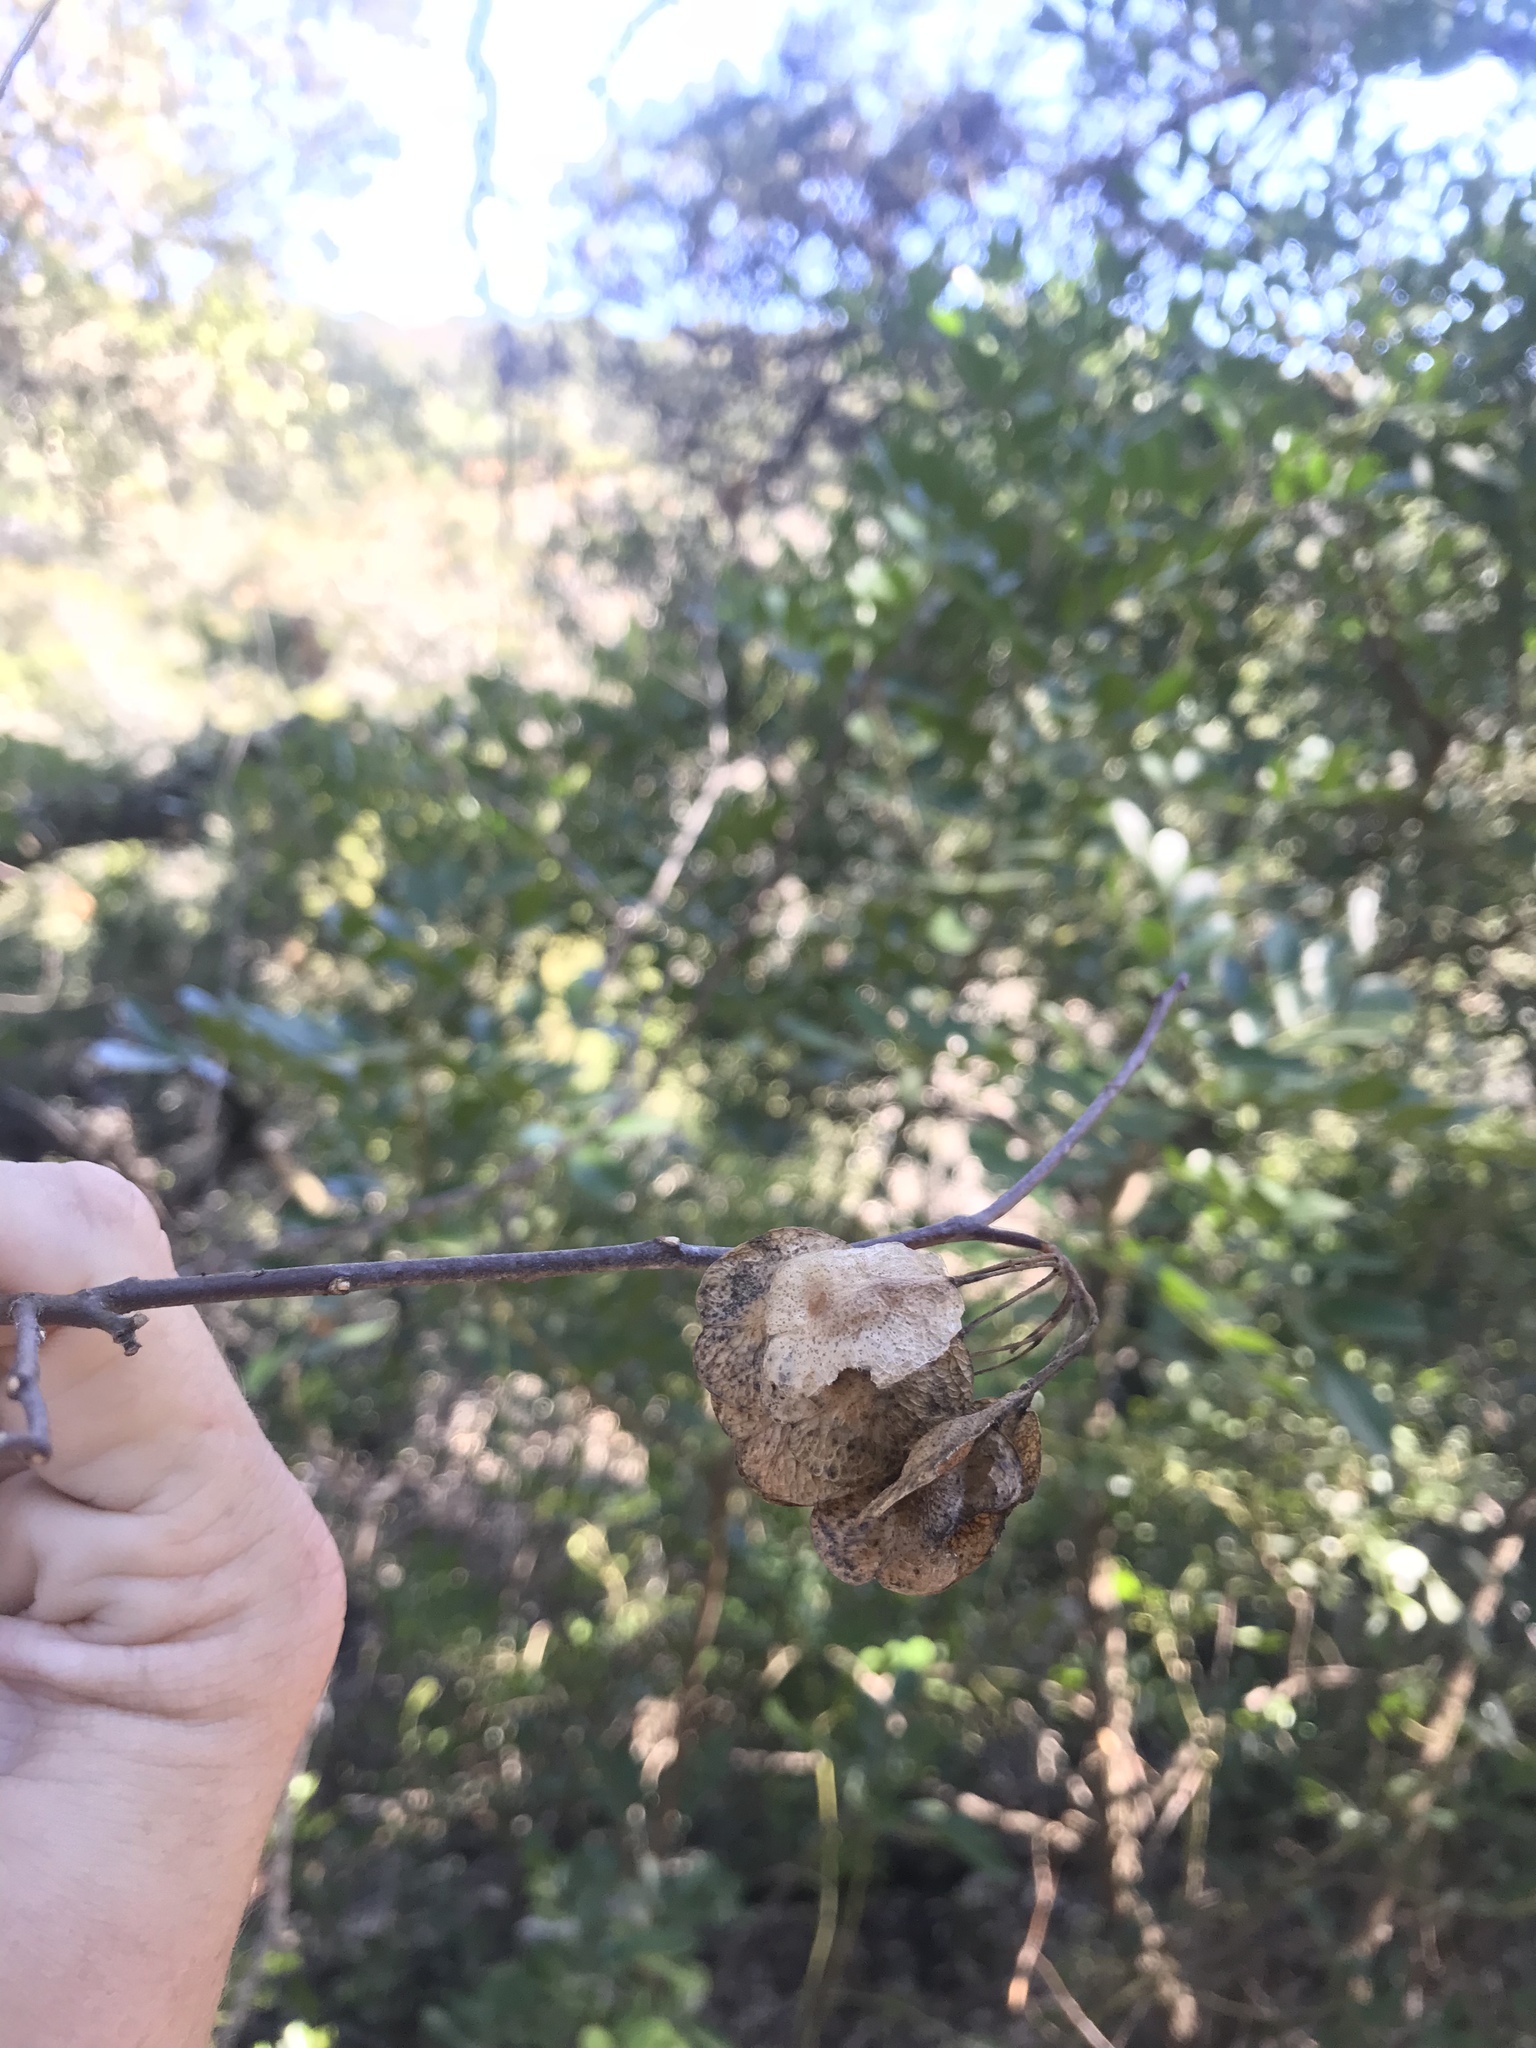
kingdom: Plantae
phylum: Tracheophyta
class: Magnoliopsida
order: Sapindales
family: Rutaceae
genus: Ptelea
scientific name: Ptelea trifoliata
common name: Common hop-tree
